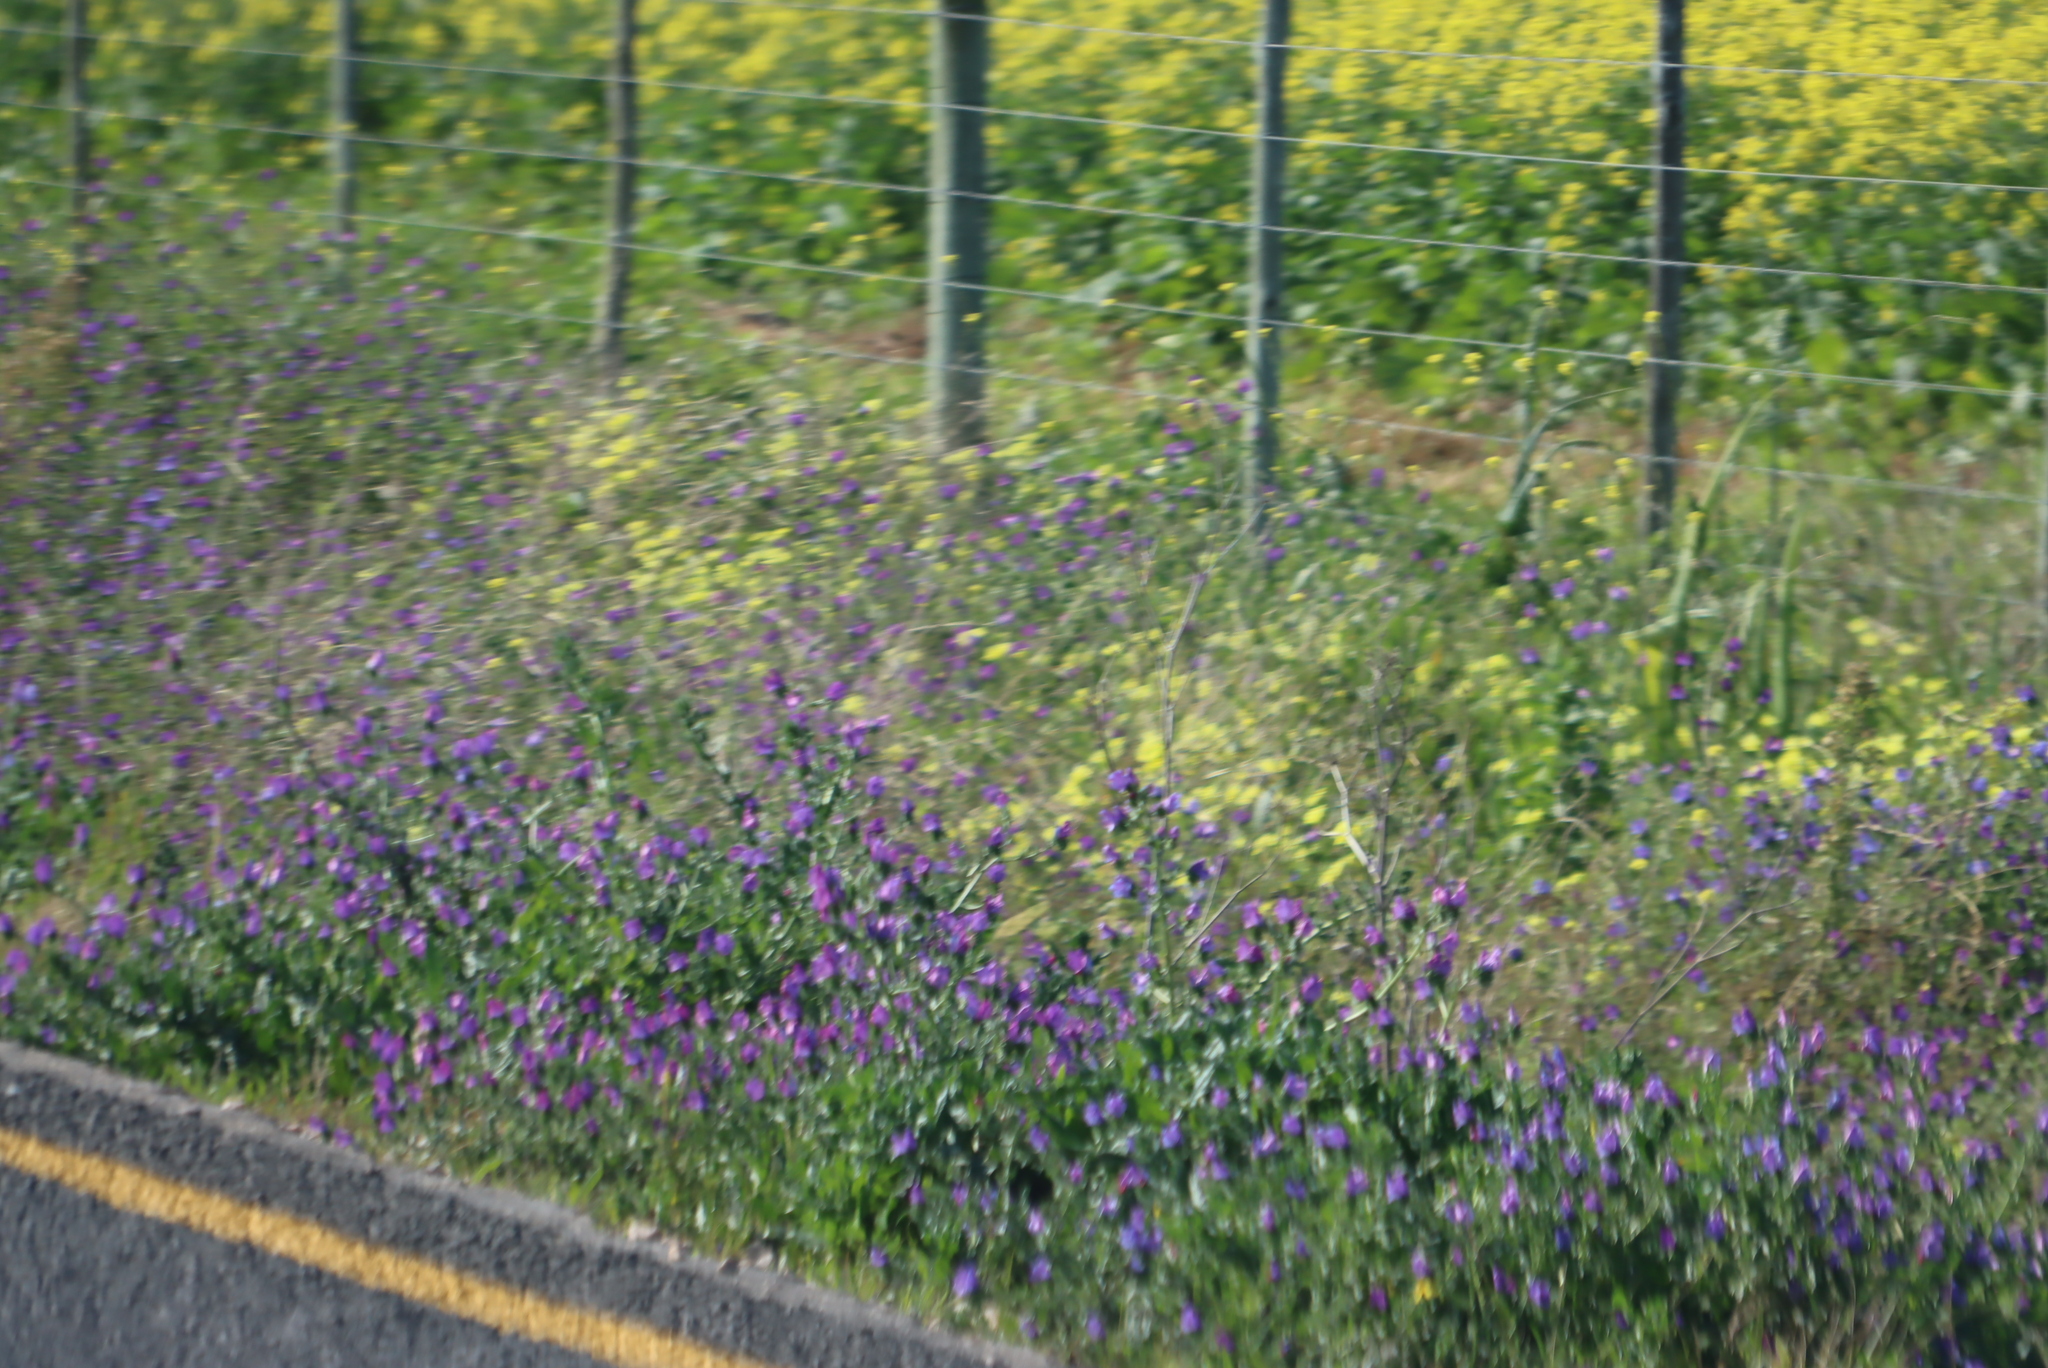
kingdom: Plantae
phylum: Tracheophyta
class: Magnoliopsida
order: Boraginales
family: Boraginaceae
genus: Echium
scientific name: Echium plantagineum
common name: Purple viper's-bugloss
